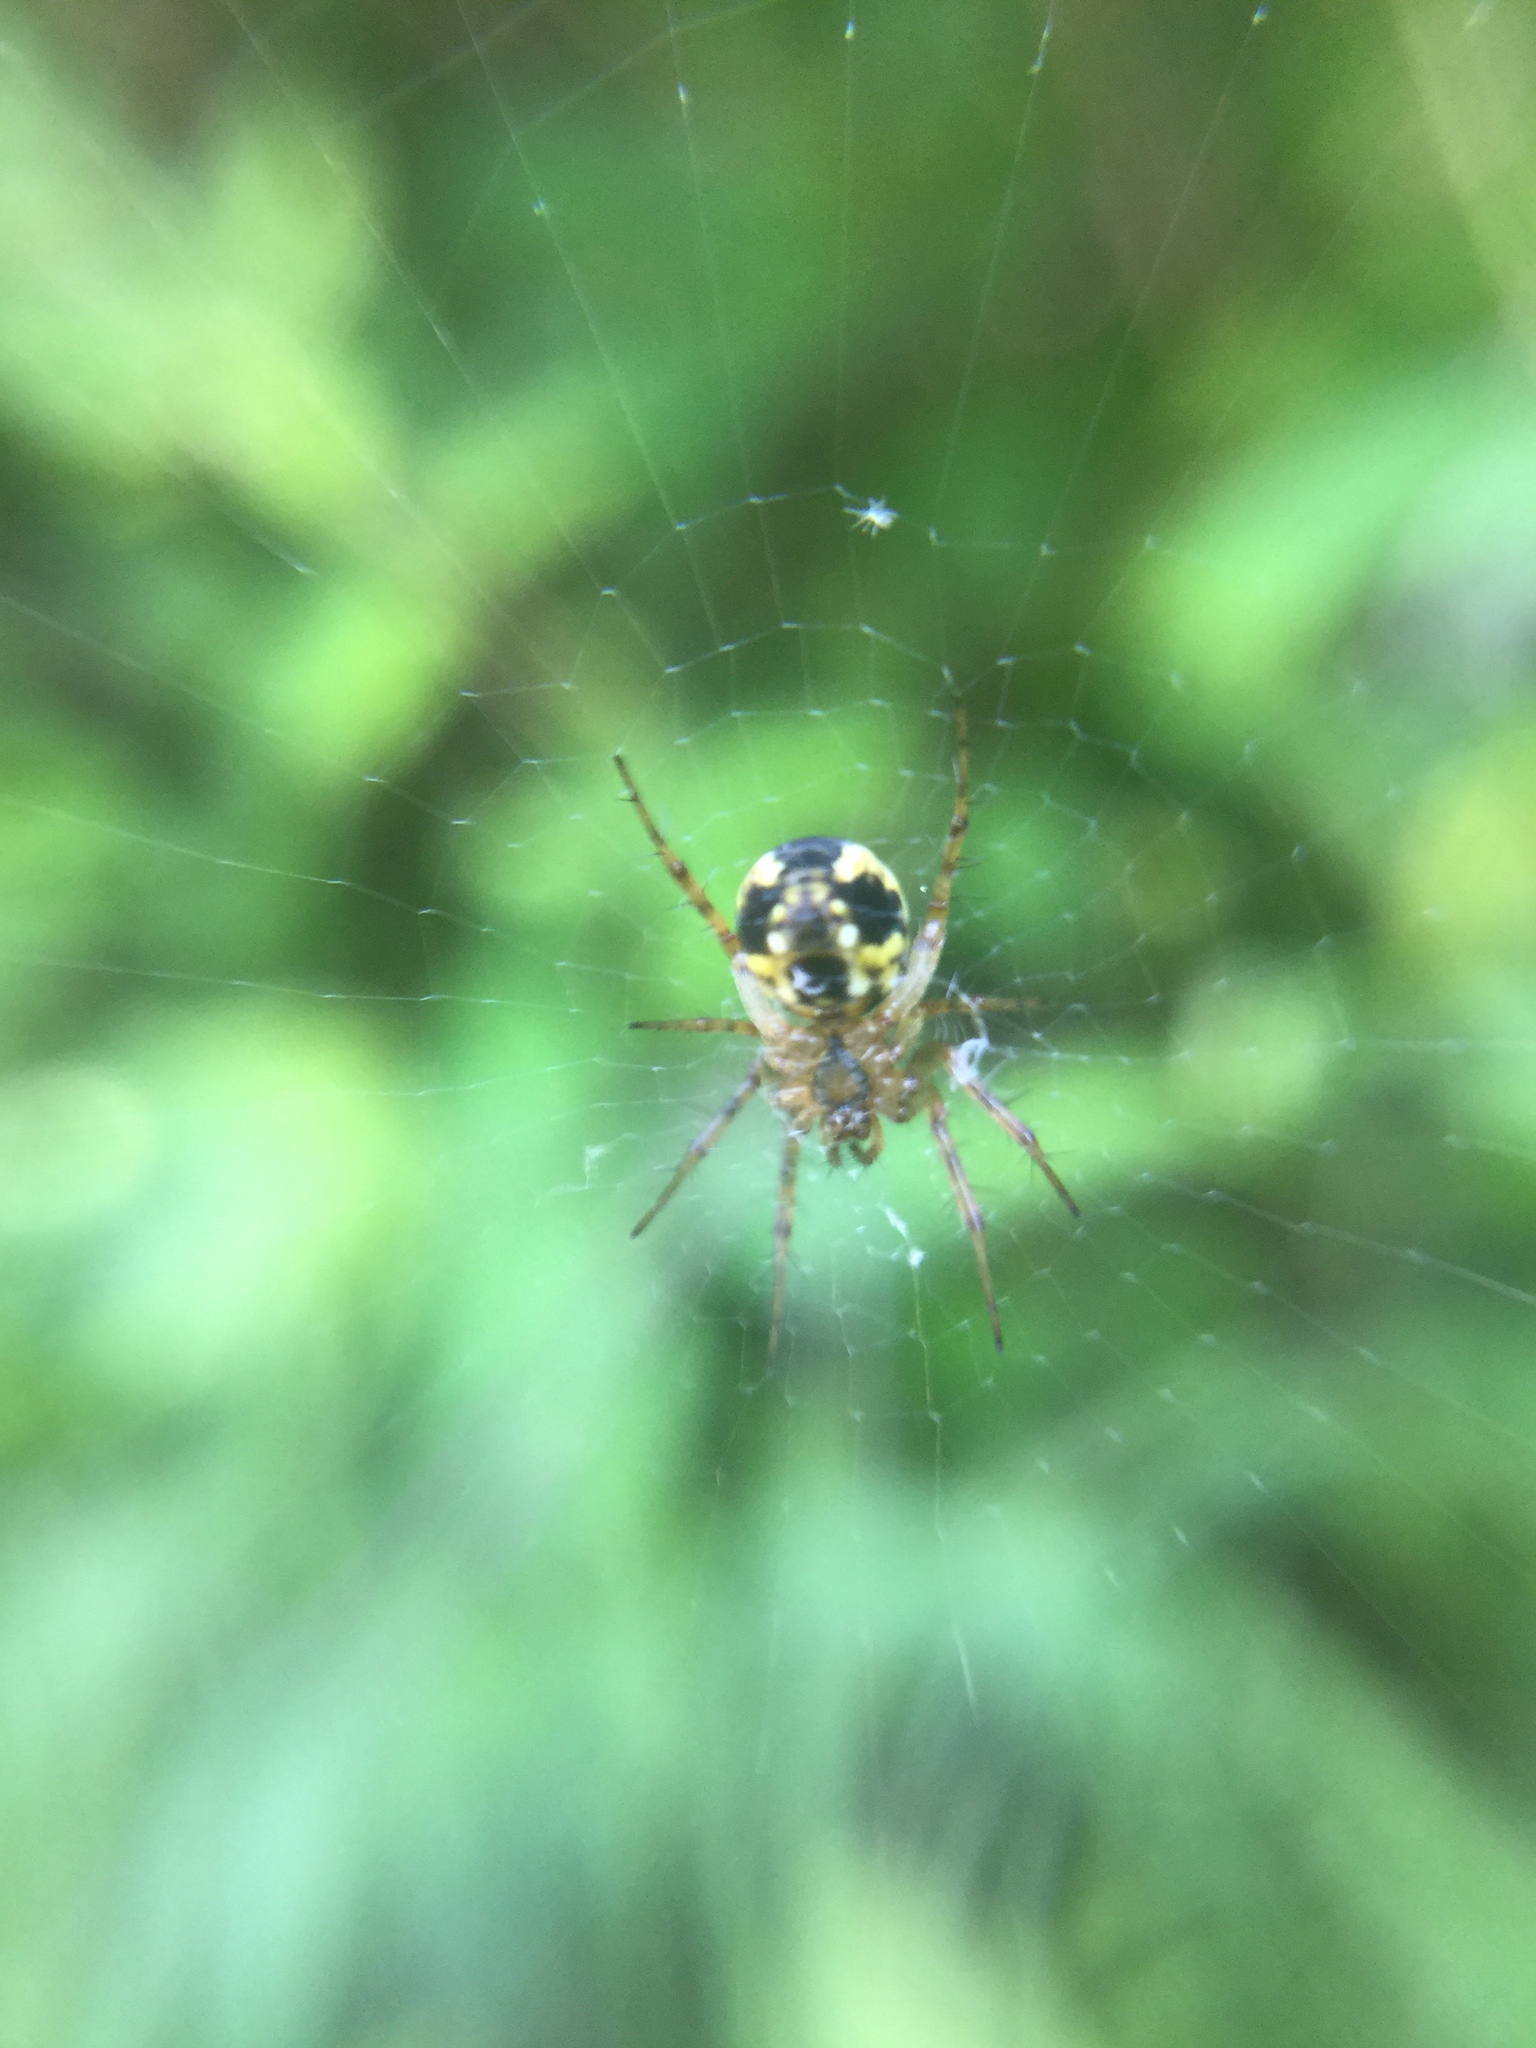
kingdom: Animalia
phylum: Arthropoda
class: Arachnida
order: Araneae
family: Araneidae
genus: Mangora
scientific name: Mangora placida
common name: Tuft-legged orbweaver
